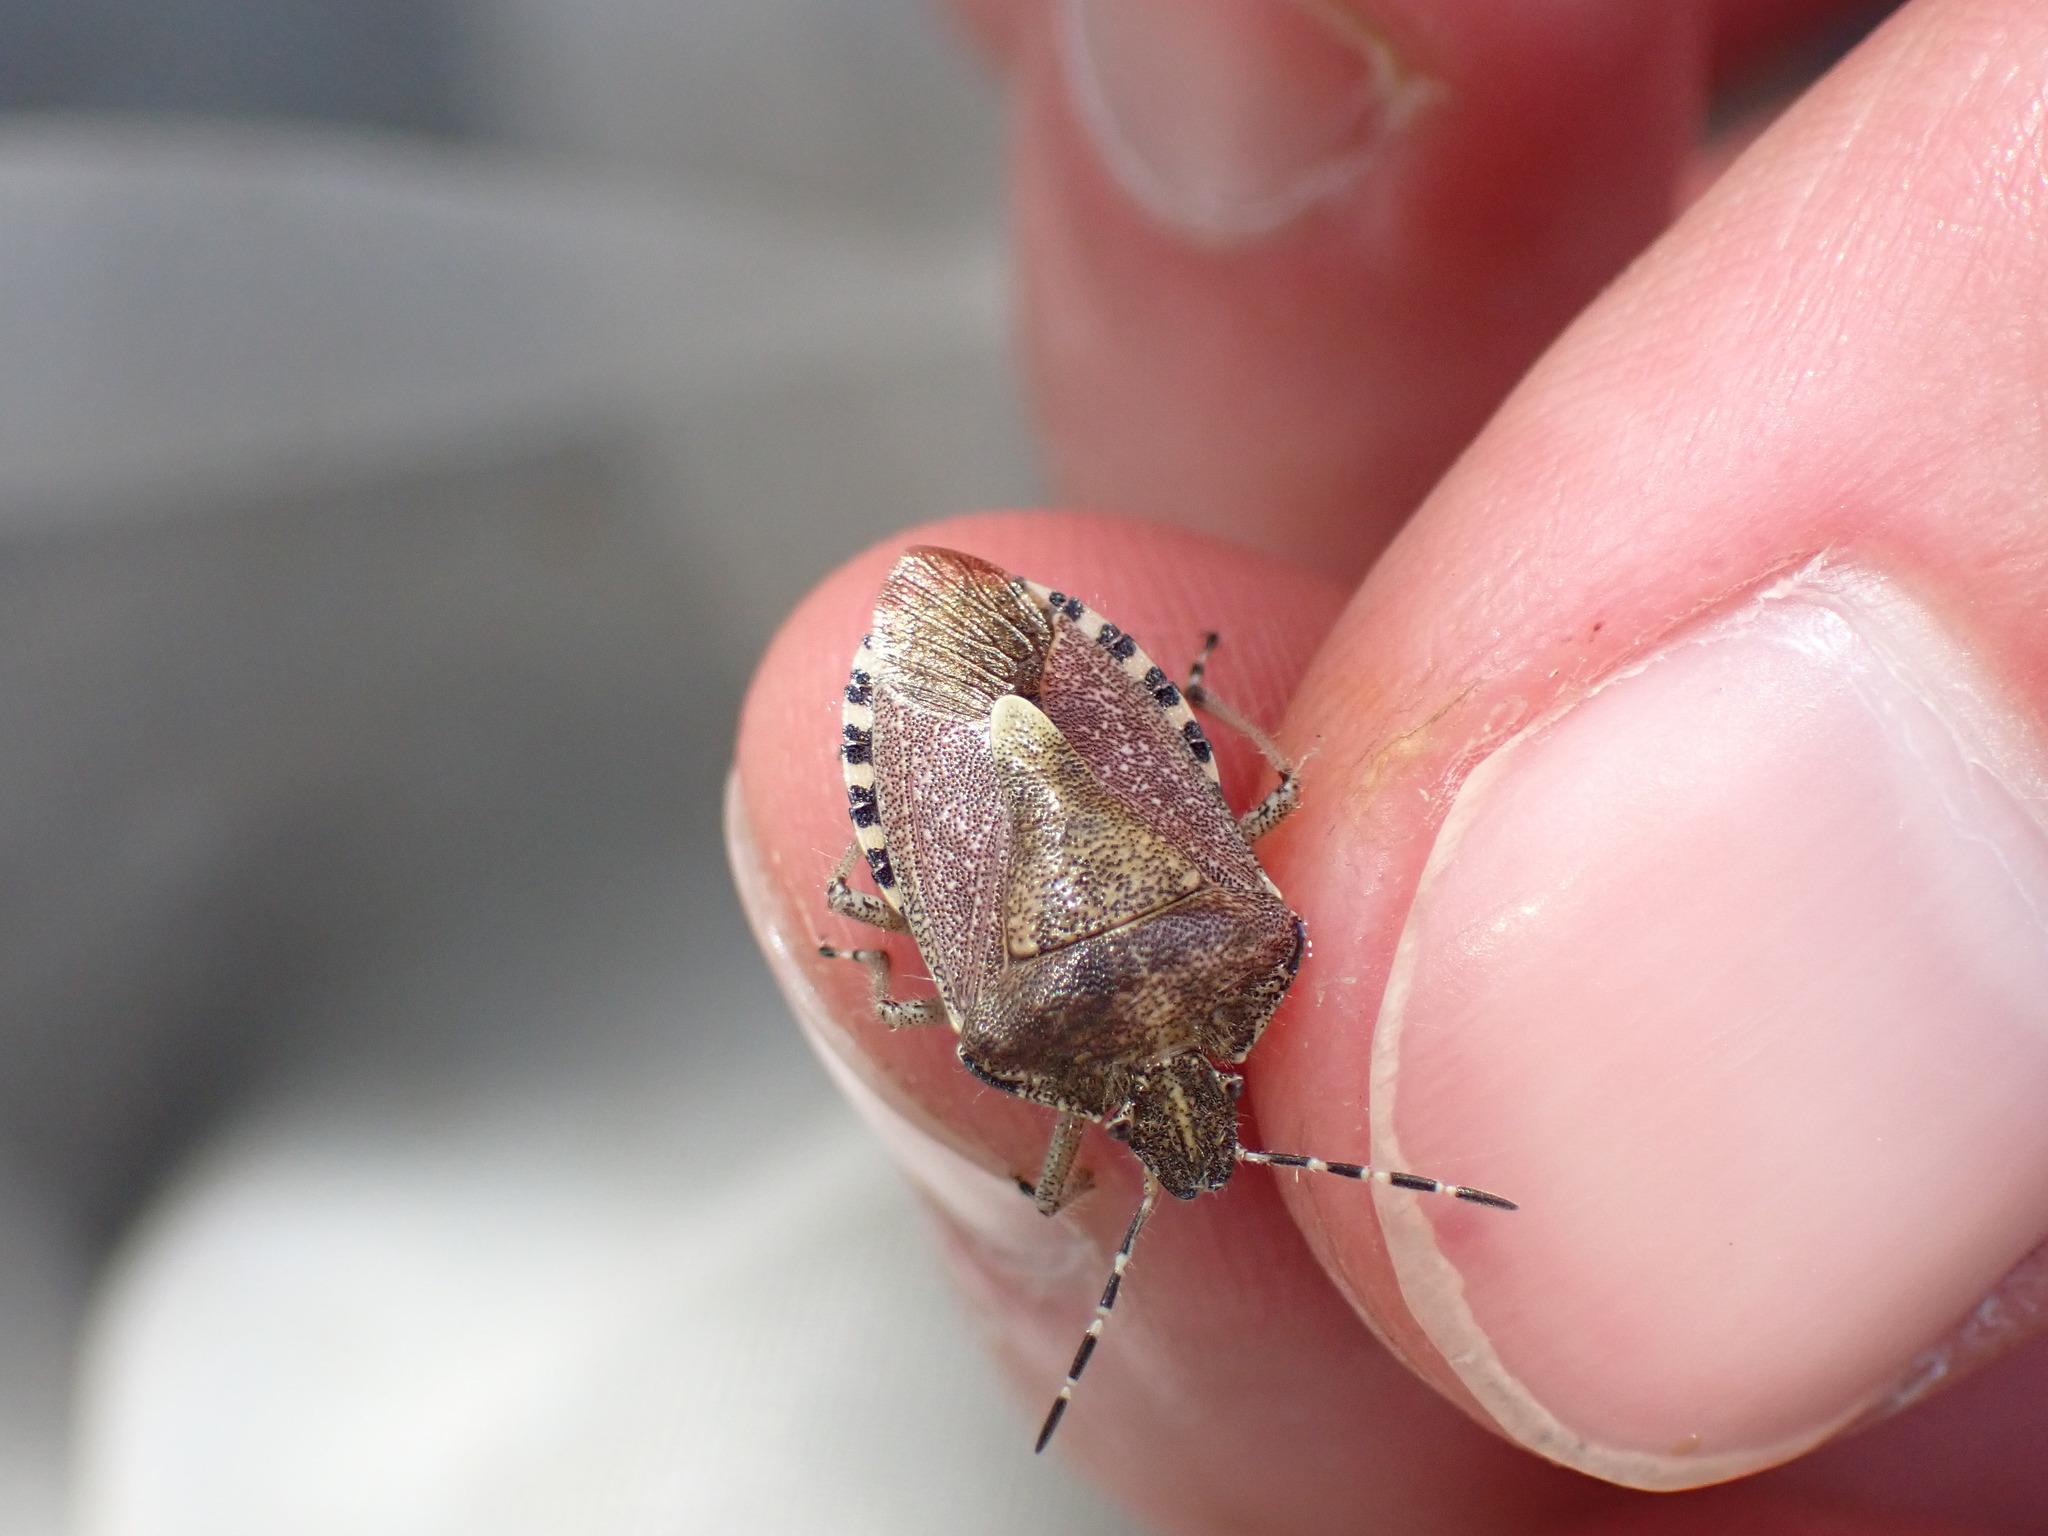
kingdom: Animalia
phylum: Arthropoda
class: Insecta
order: Hemiptera
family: Pentatomidae
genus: Dolycoris
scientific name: Dolycoris baccarum
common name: Sloe bug
